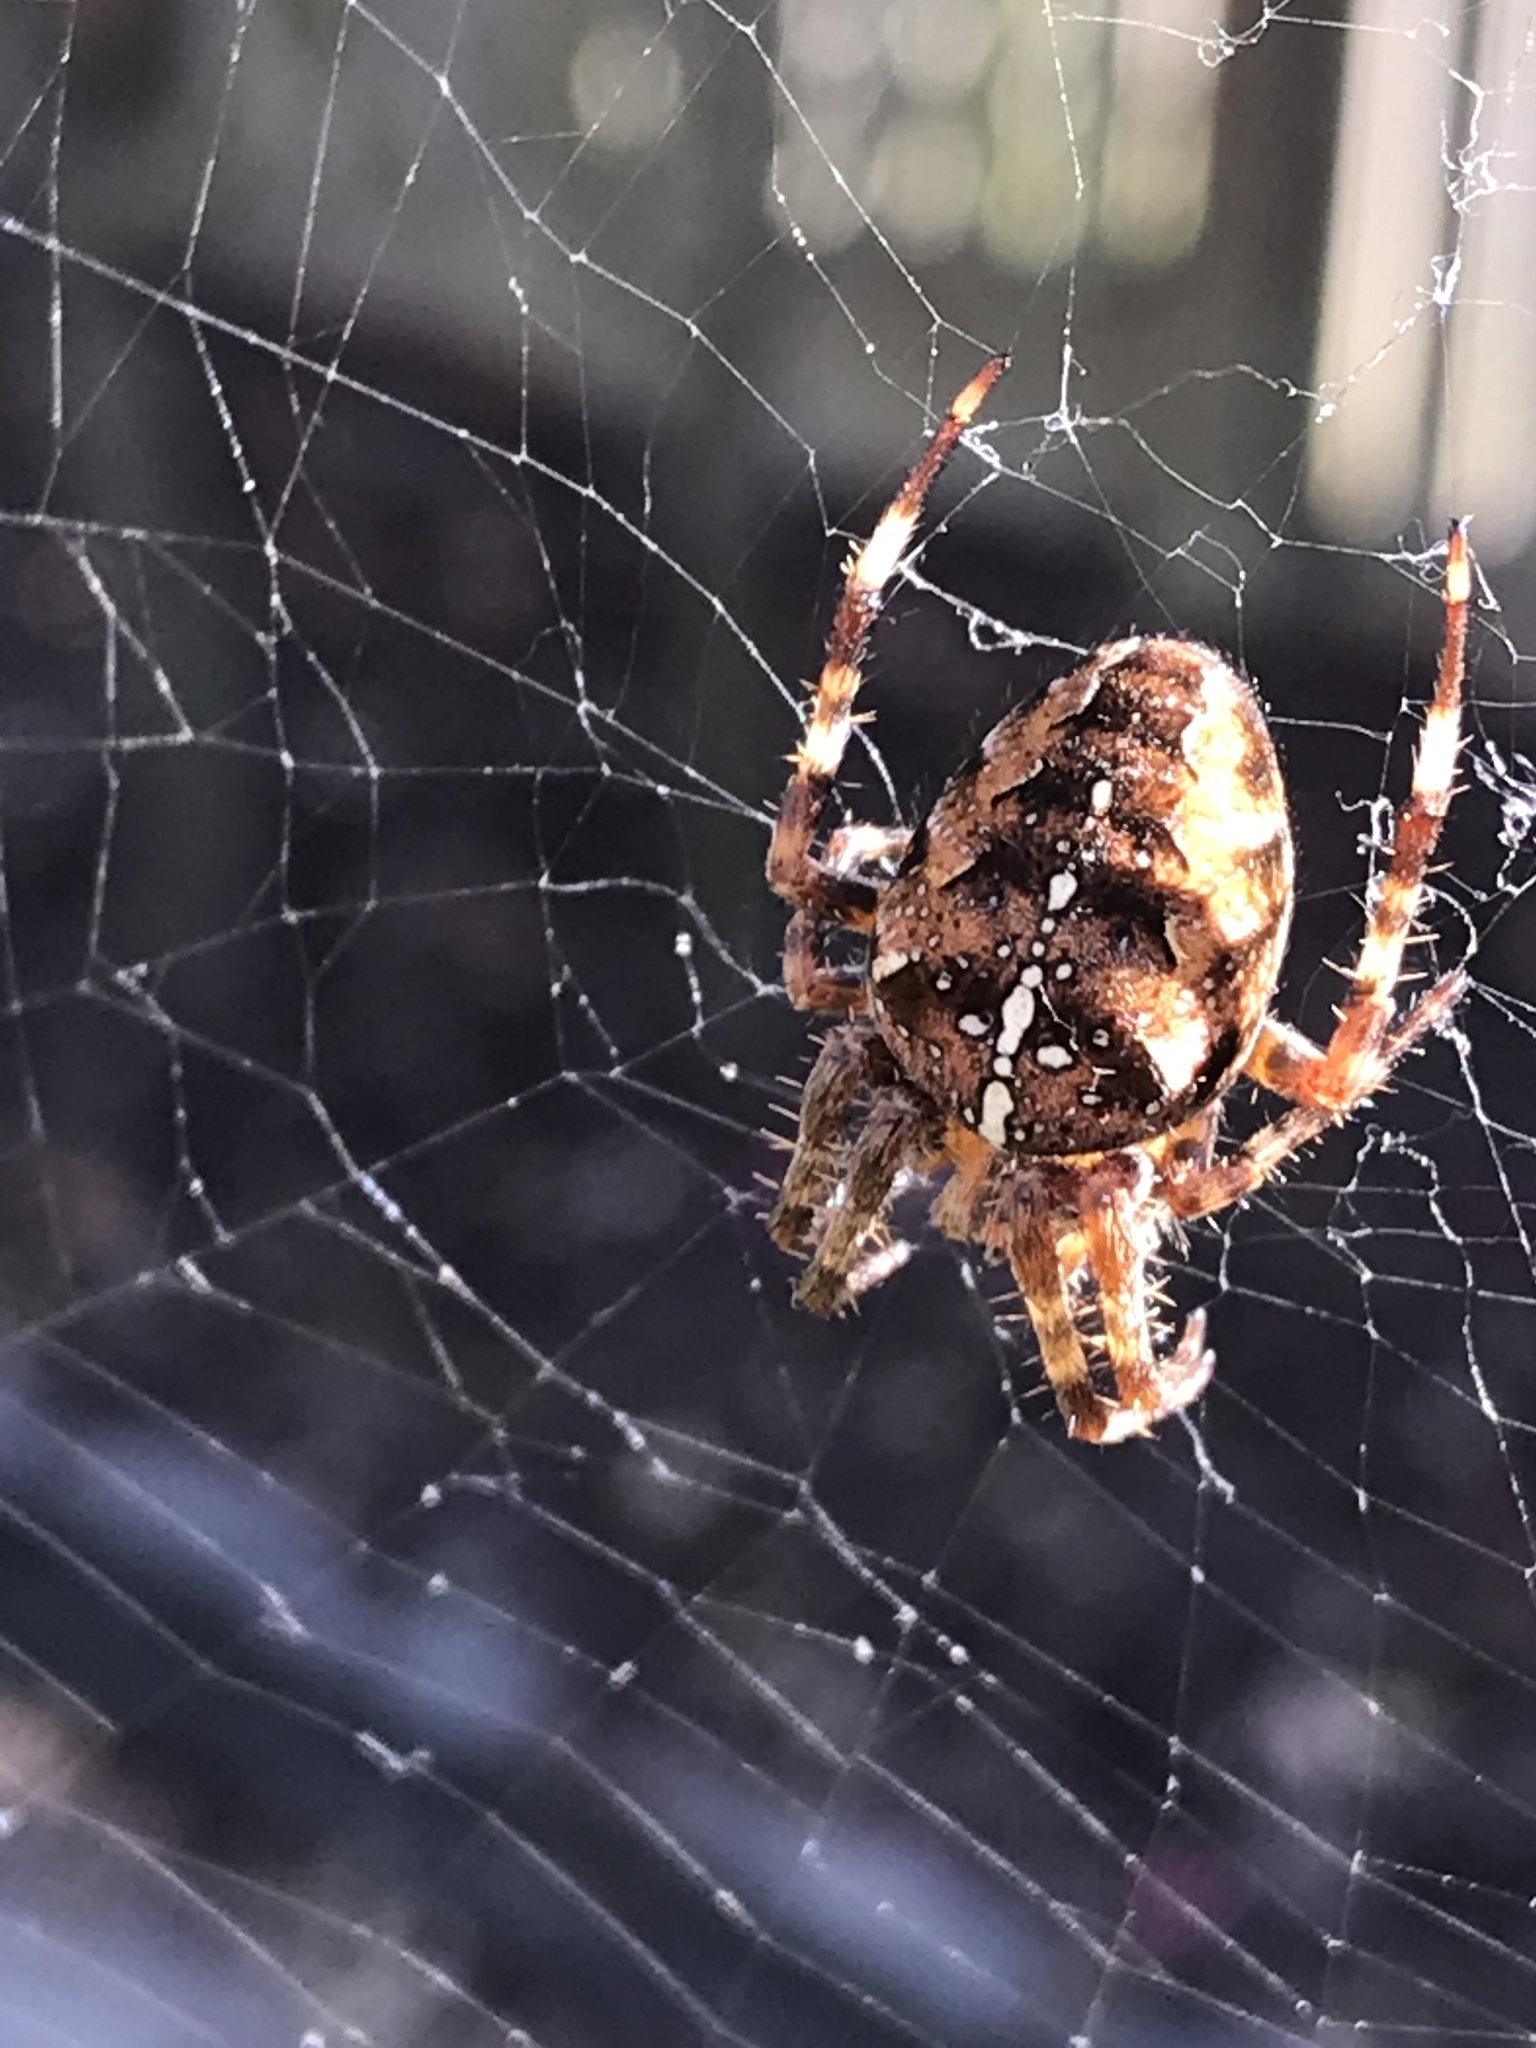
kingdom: Animalia
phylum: Arthropoda
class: Arachnida
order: Araneae
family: Araneidae
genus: Araneus
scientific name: Araneus diadematus
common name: Cross orbweaver
